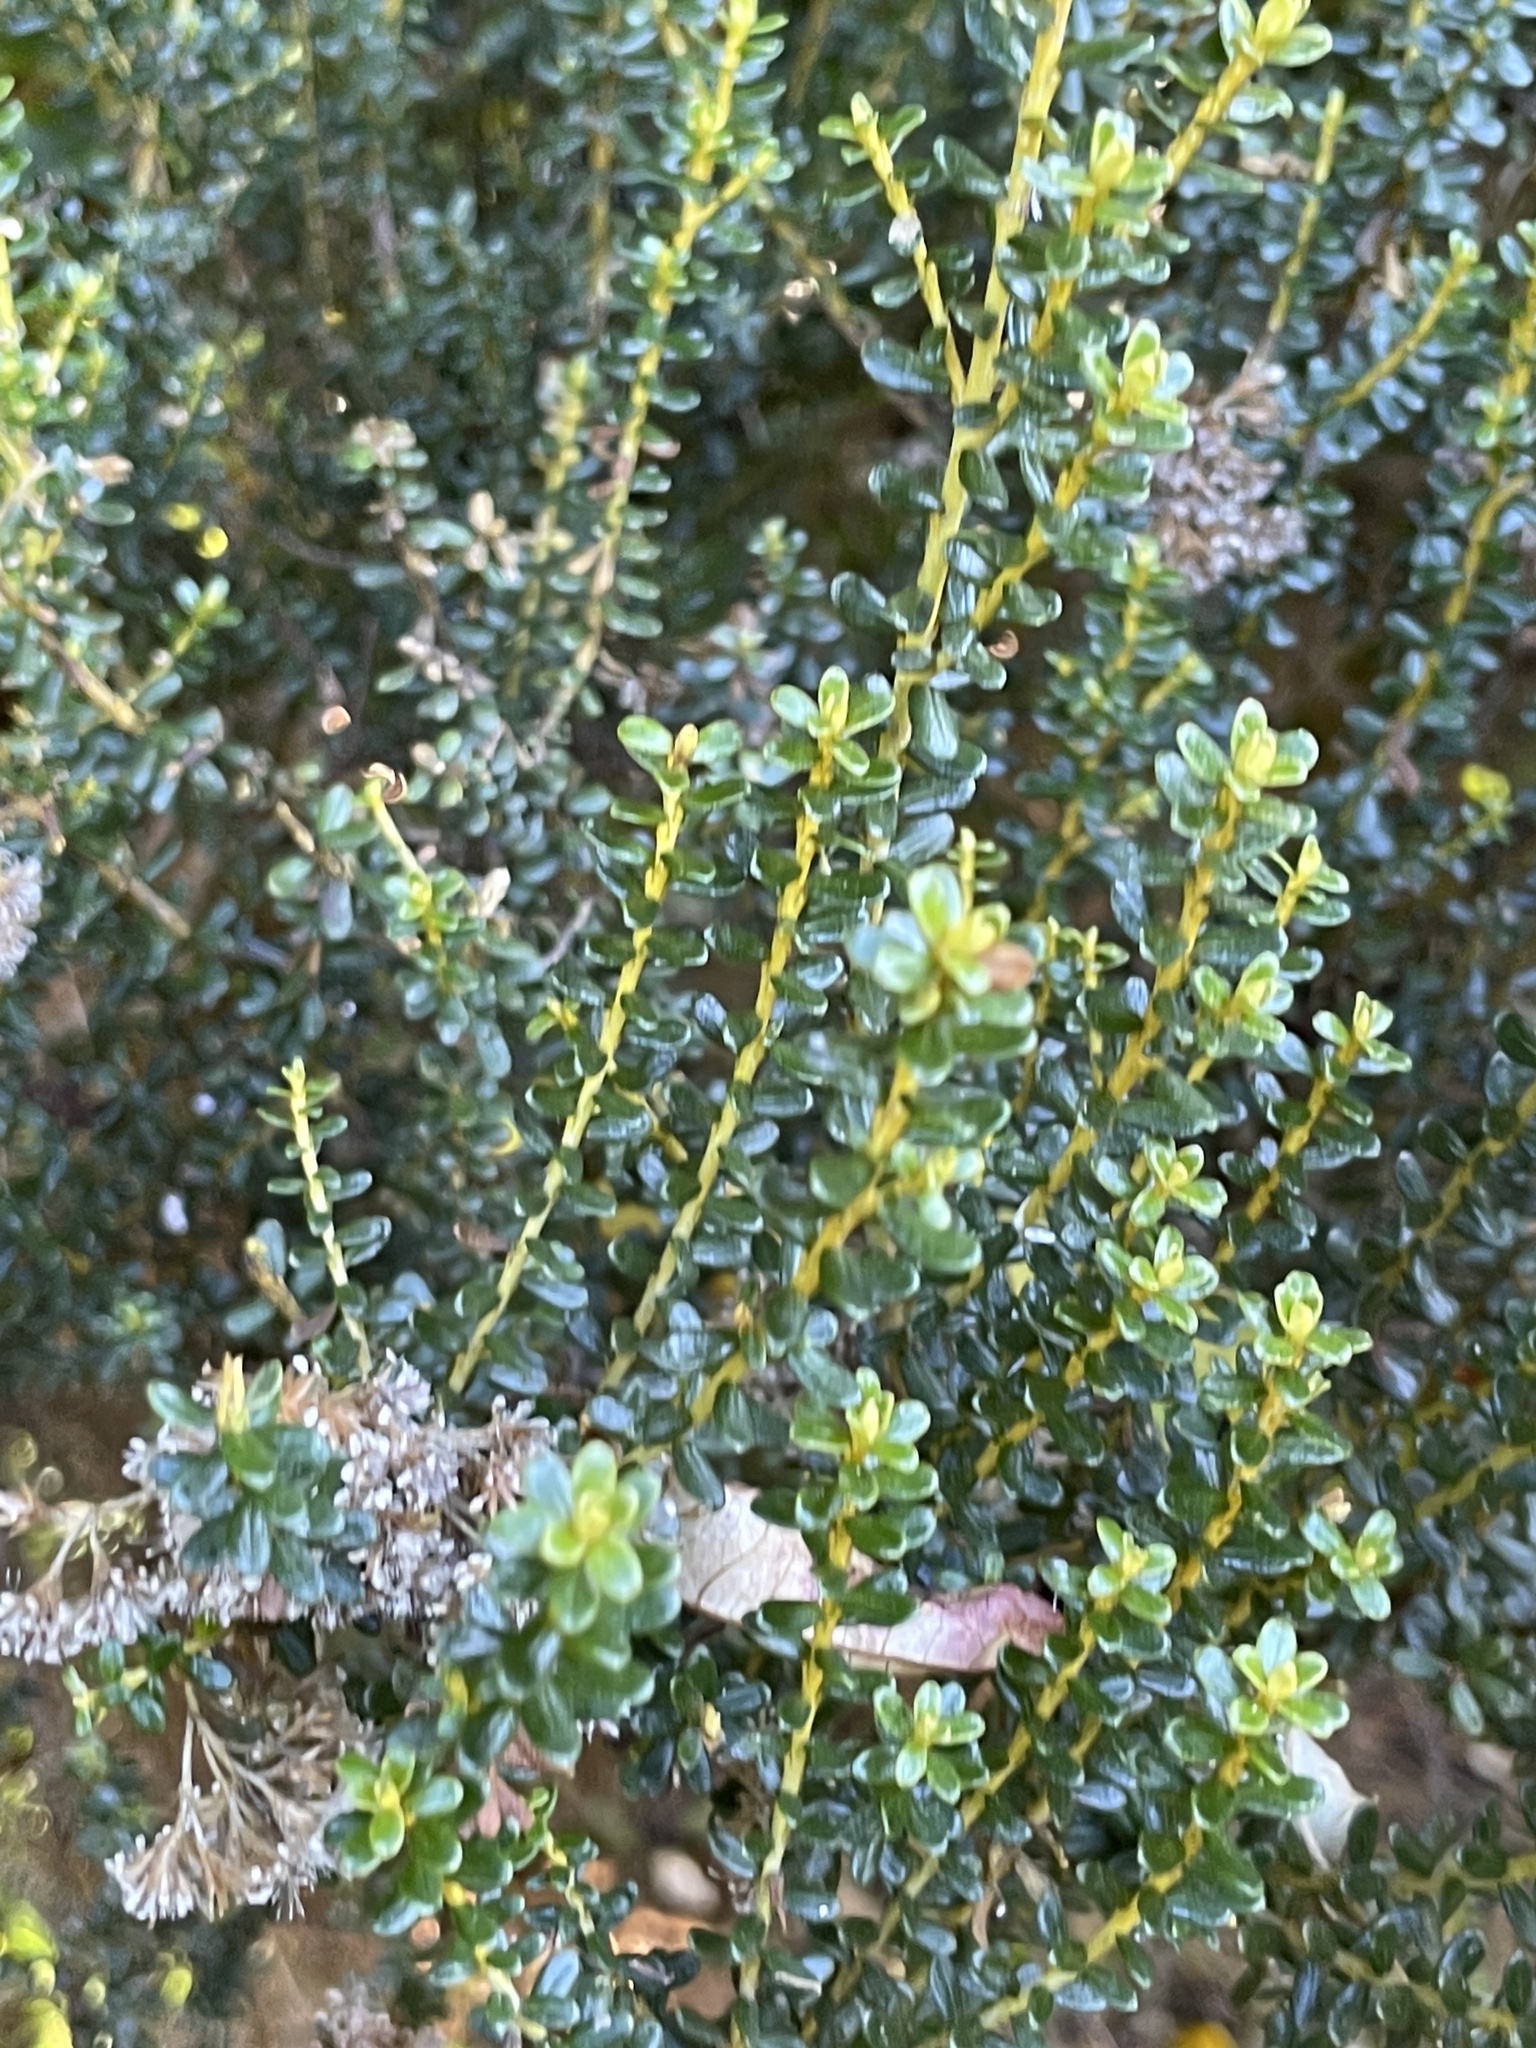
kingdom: Plantae
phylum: Tracheophyta
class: Magnoliopsida
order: Asterales
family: Asteraceae
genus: Ozothamnus
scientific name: Ozothamnus leptophyllus
